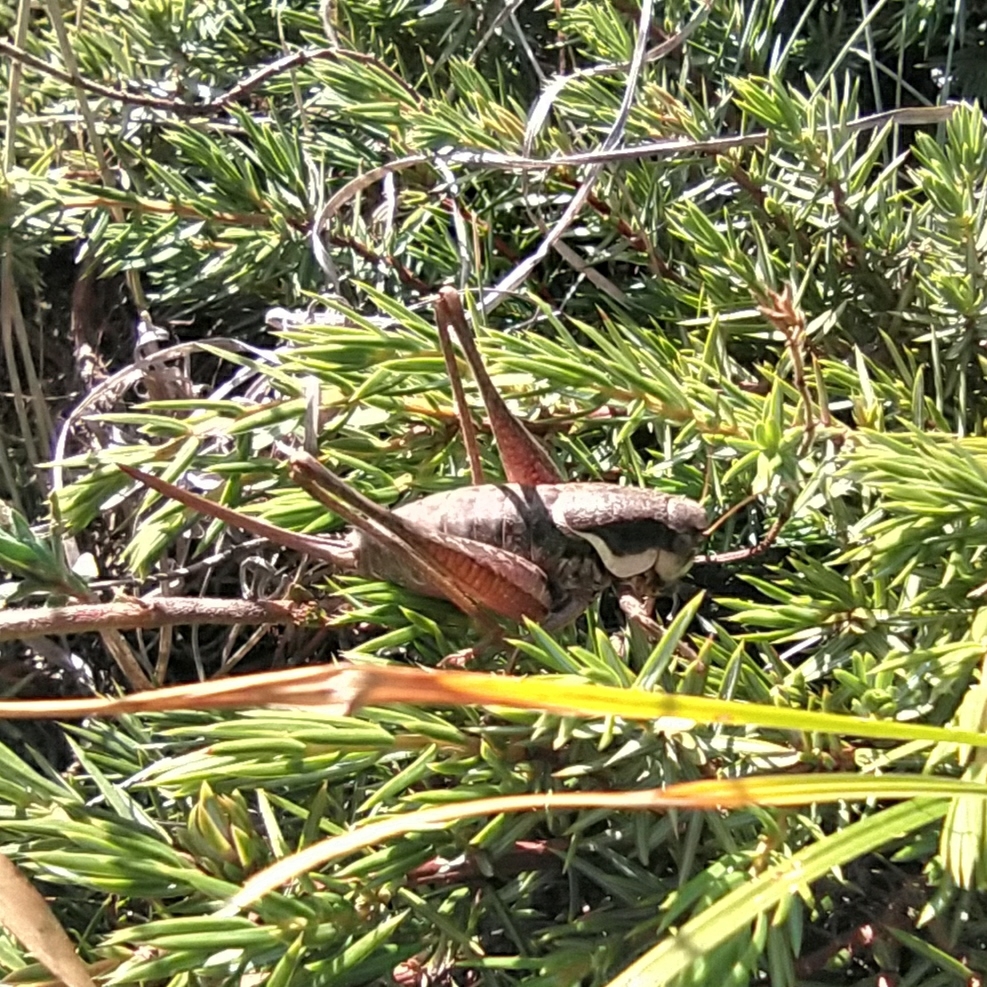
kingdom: Animalia
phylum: Arthropoda
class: Insecta
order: Orthoptera
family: Tettigoniidae
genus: Pholidoptera
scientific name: Pholidoptera pustulipes
